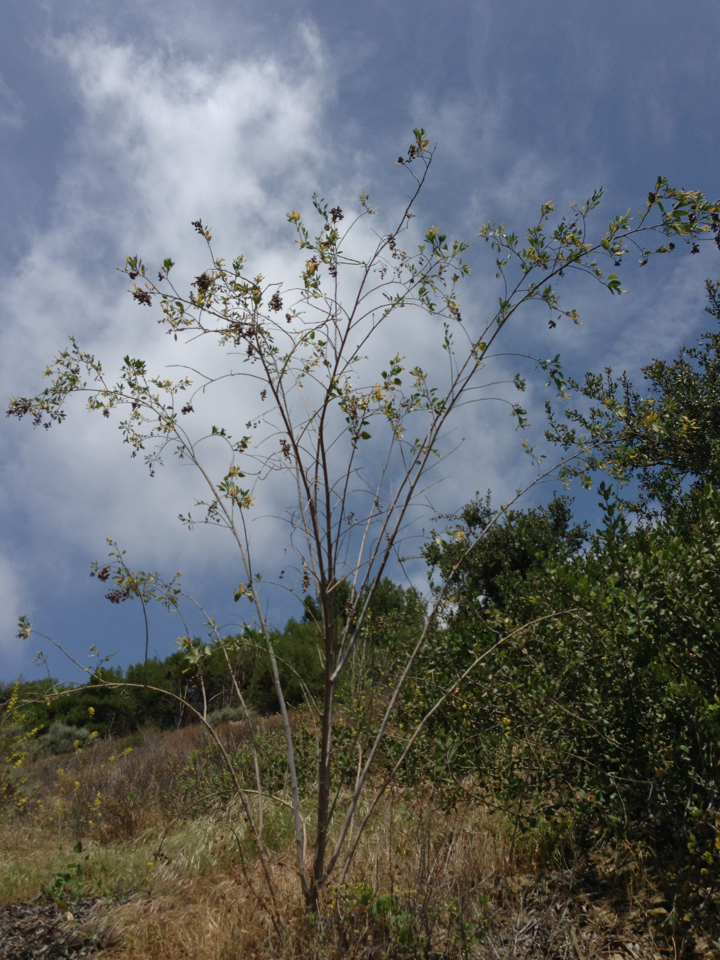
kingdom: Plantae
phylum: Tracheophyta
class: Magnoliopsida
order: Solanales
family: Solanaceae
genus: Nicotiana
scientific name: Nicotiana glauca
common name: Tree tobacco
